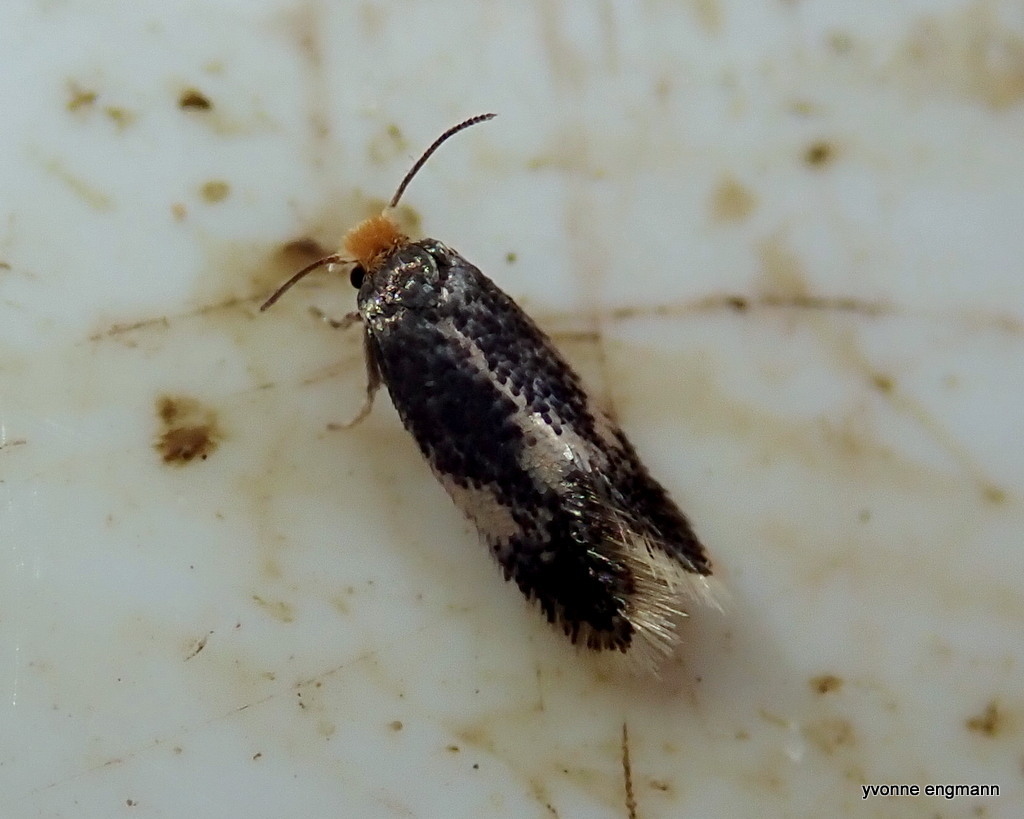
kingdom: Animalia
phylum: Arthropoda
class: Insecta
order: Lepidoptera
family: Nepticulidae
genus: Ectoedemia
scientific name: Ectoedemia
